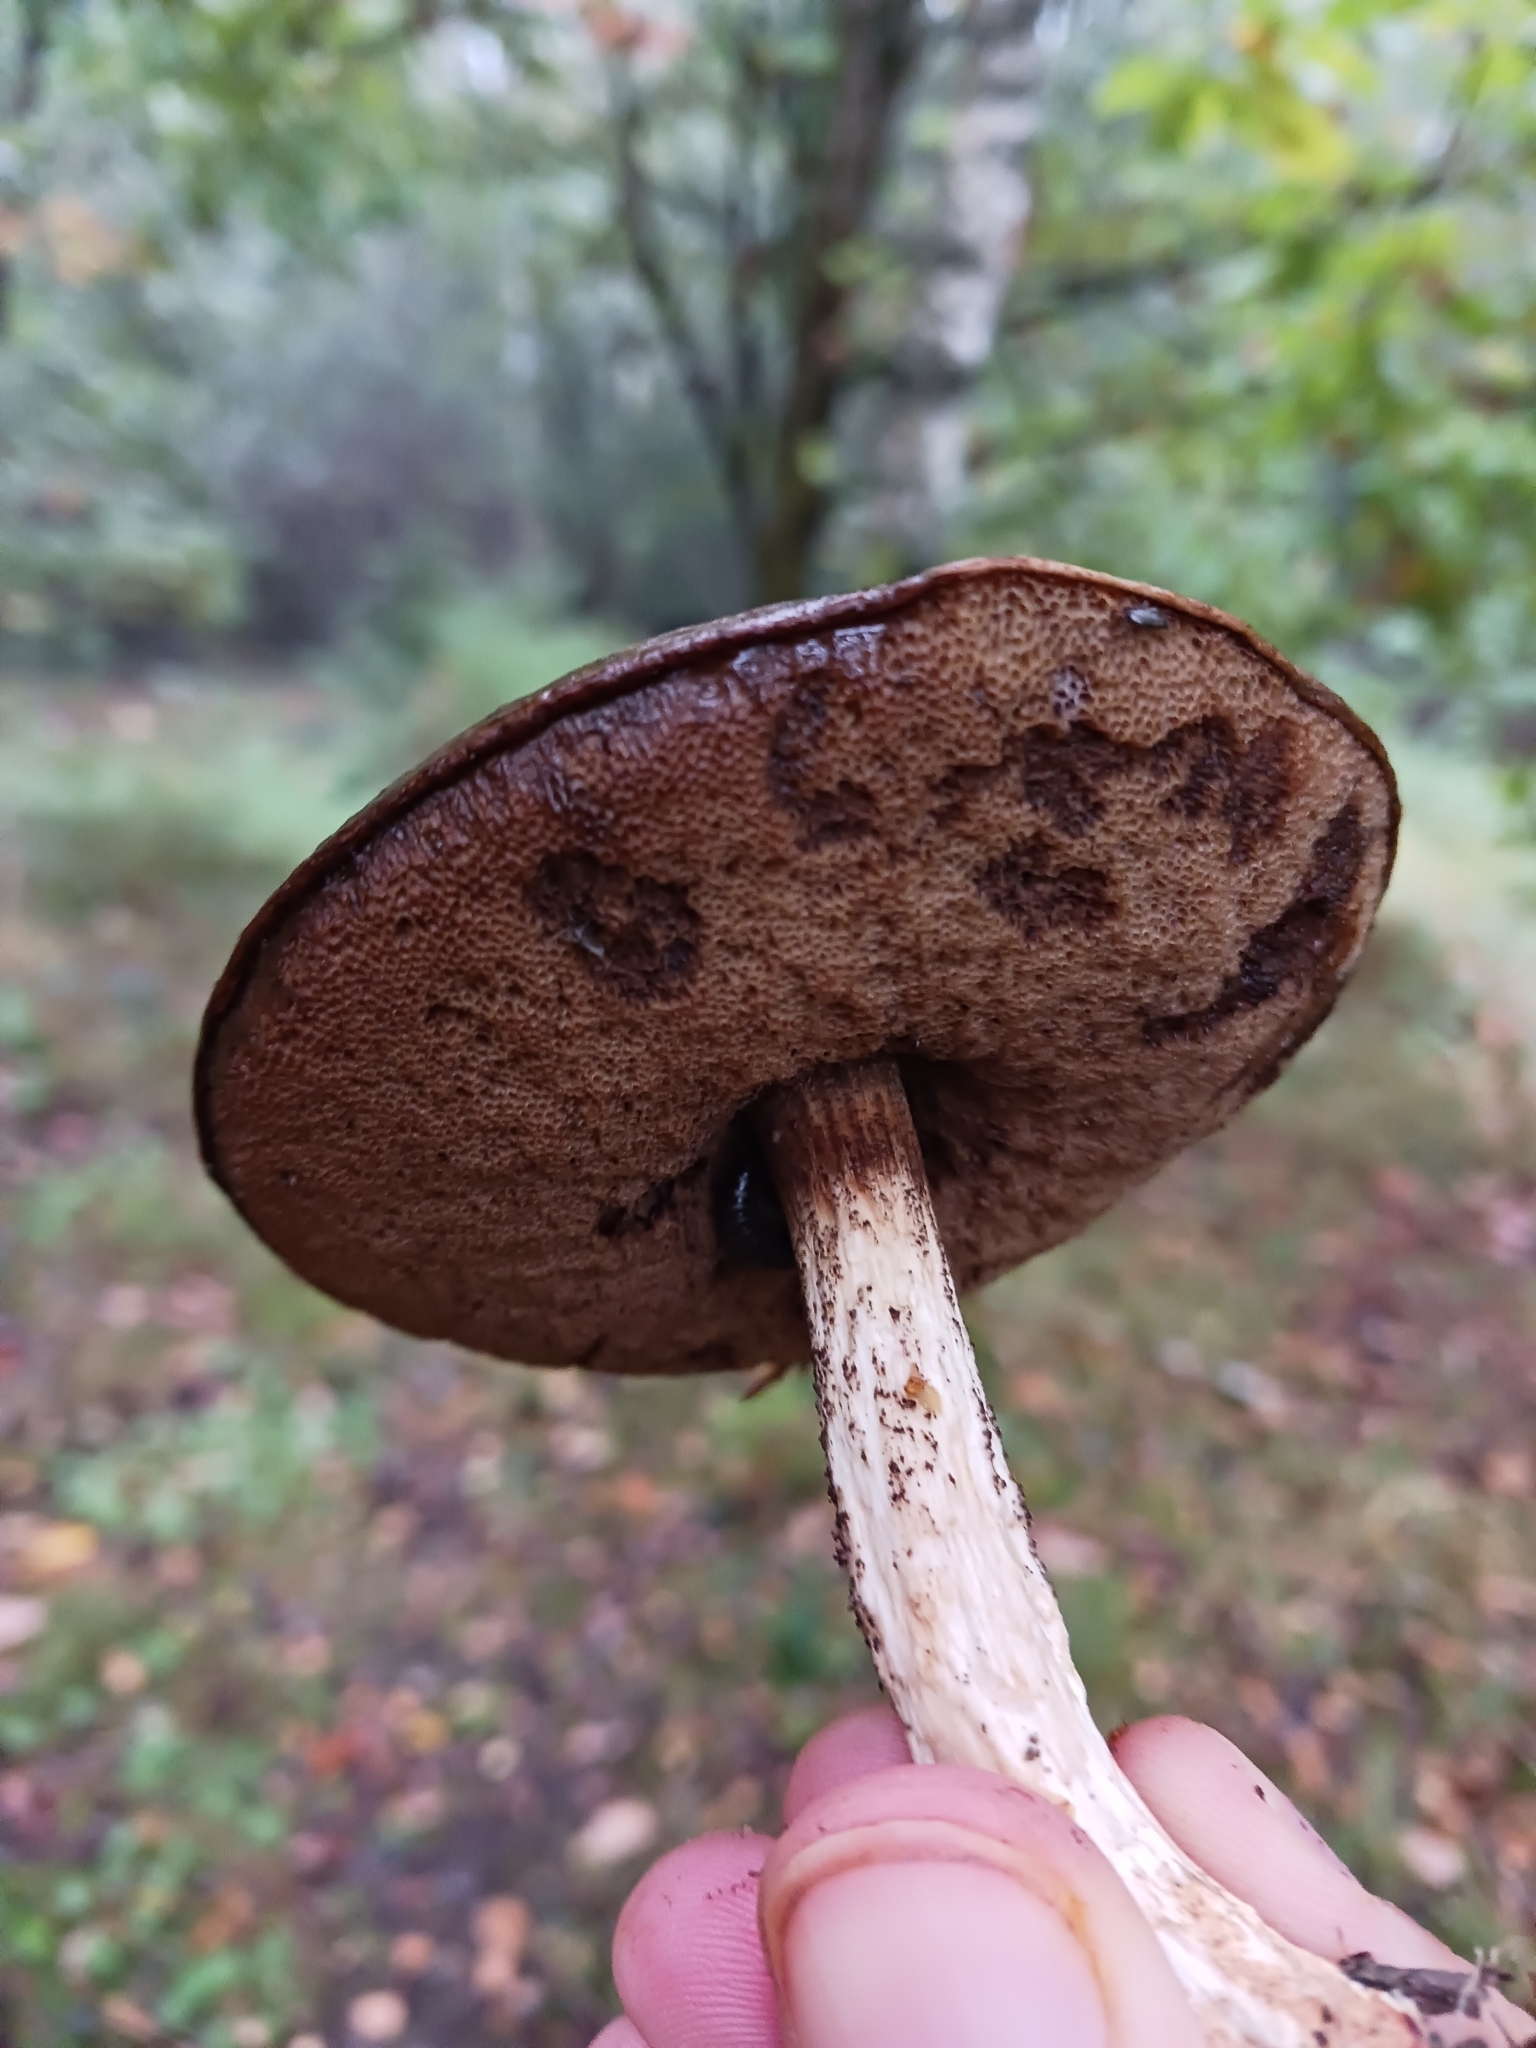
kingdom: Fungi
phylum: Basidiomycota
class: Agaricomycetes
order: Boletales
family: Boletaceae
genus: Leccinum
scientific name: Leccinum scabrum
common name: Blushing bolete
